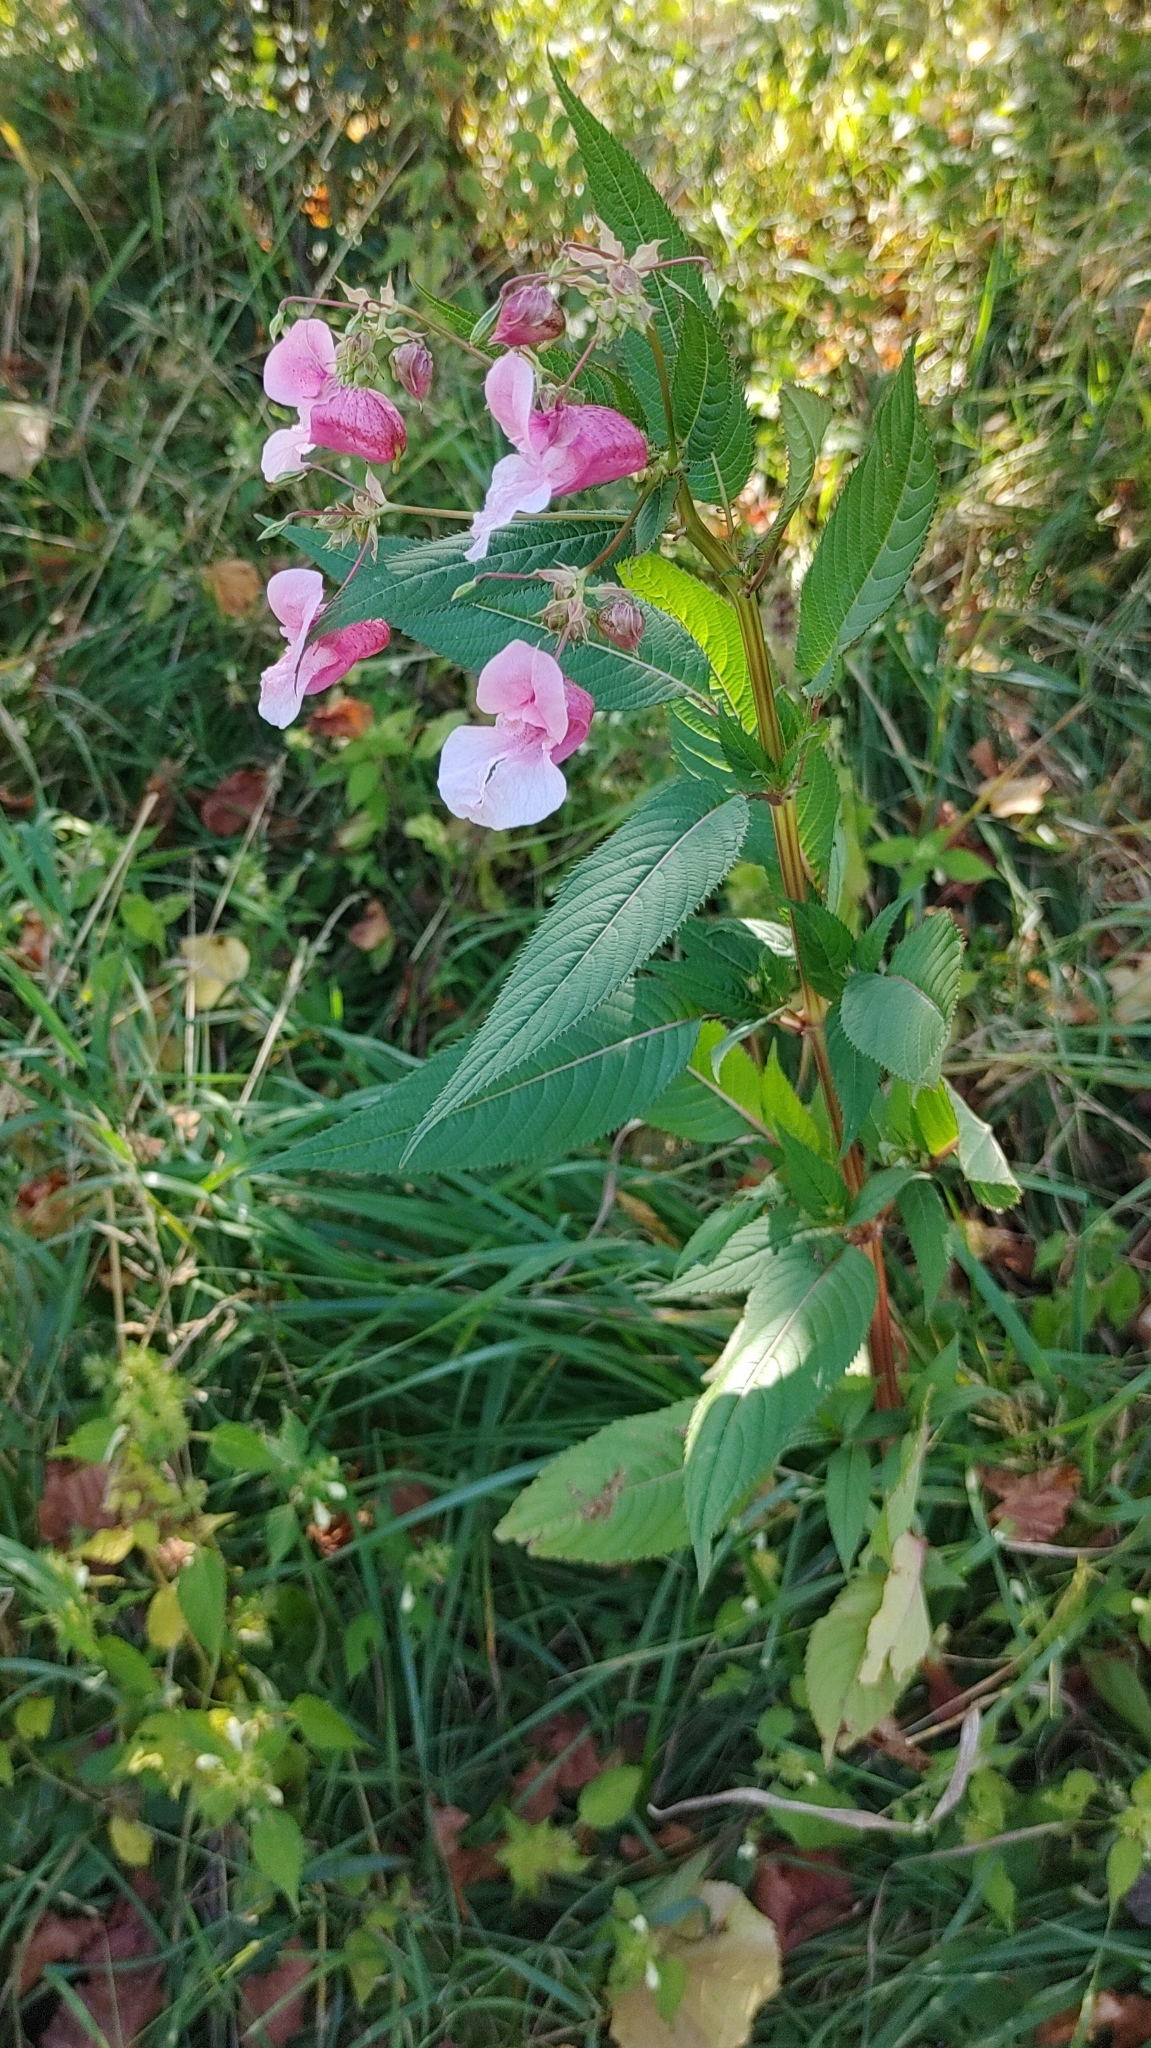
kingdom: Plantae
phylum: Tracheophyta
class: Magnoliopsida
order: Ericales
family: Balsaminaceae
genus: Impatiens
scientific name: Impatiens glandulifera
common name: Himalayan balsam
